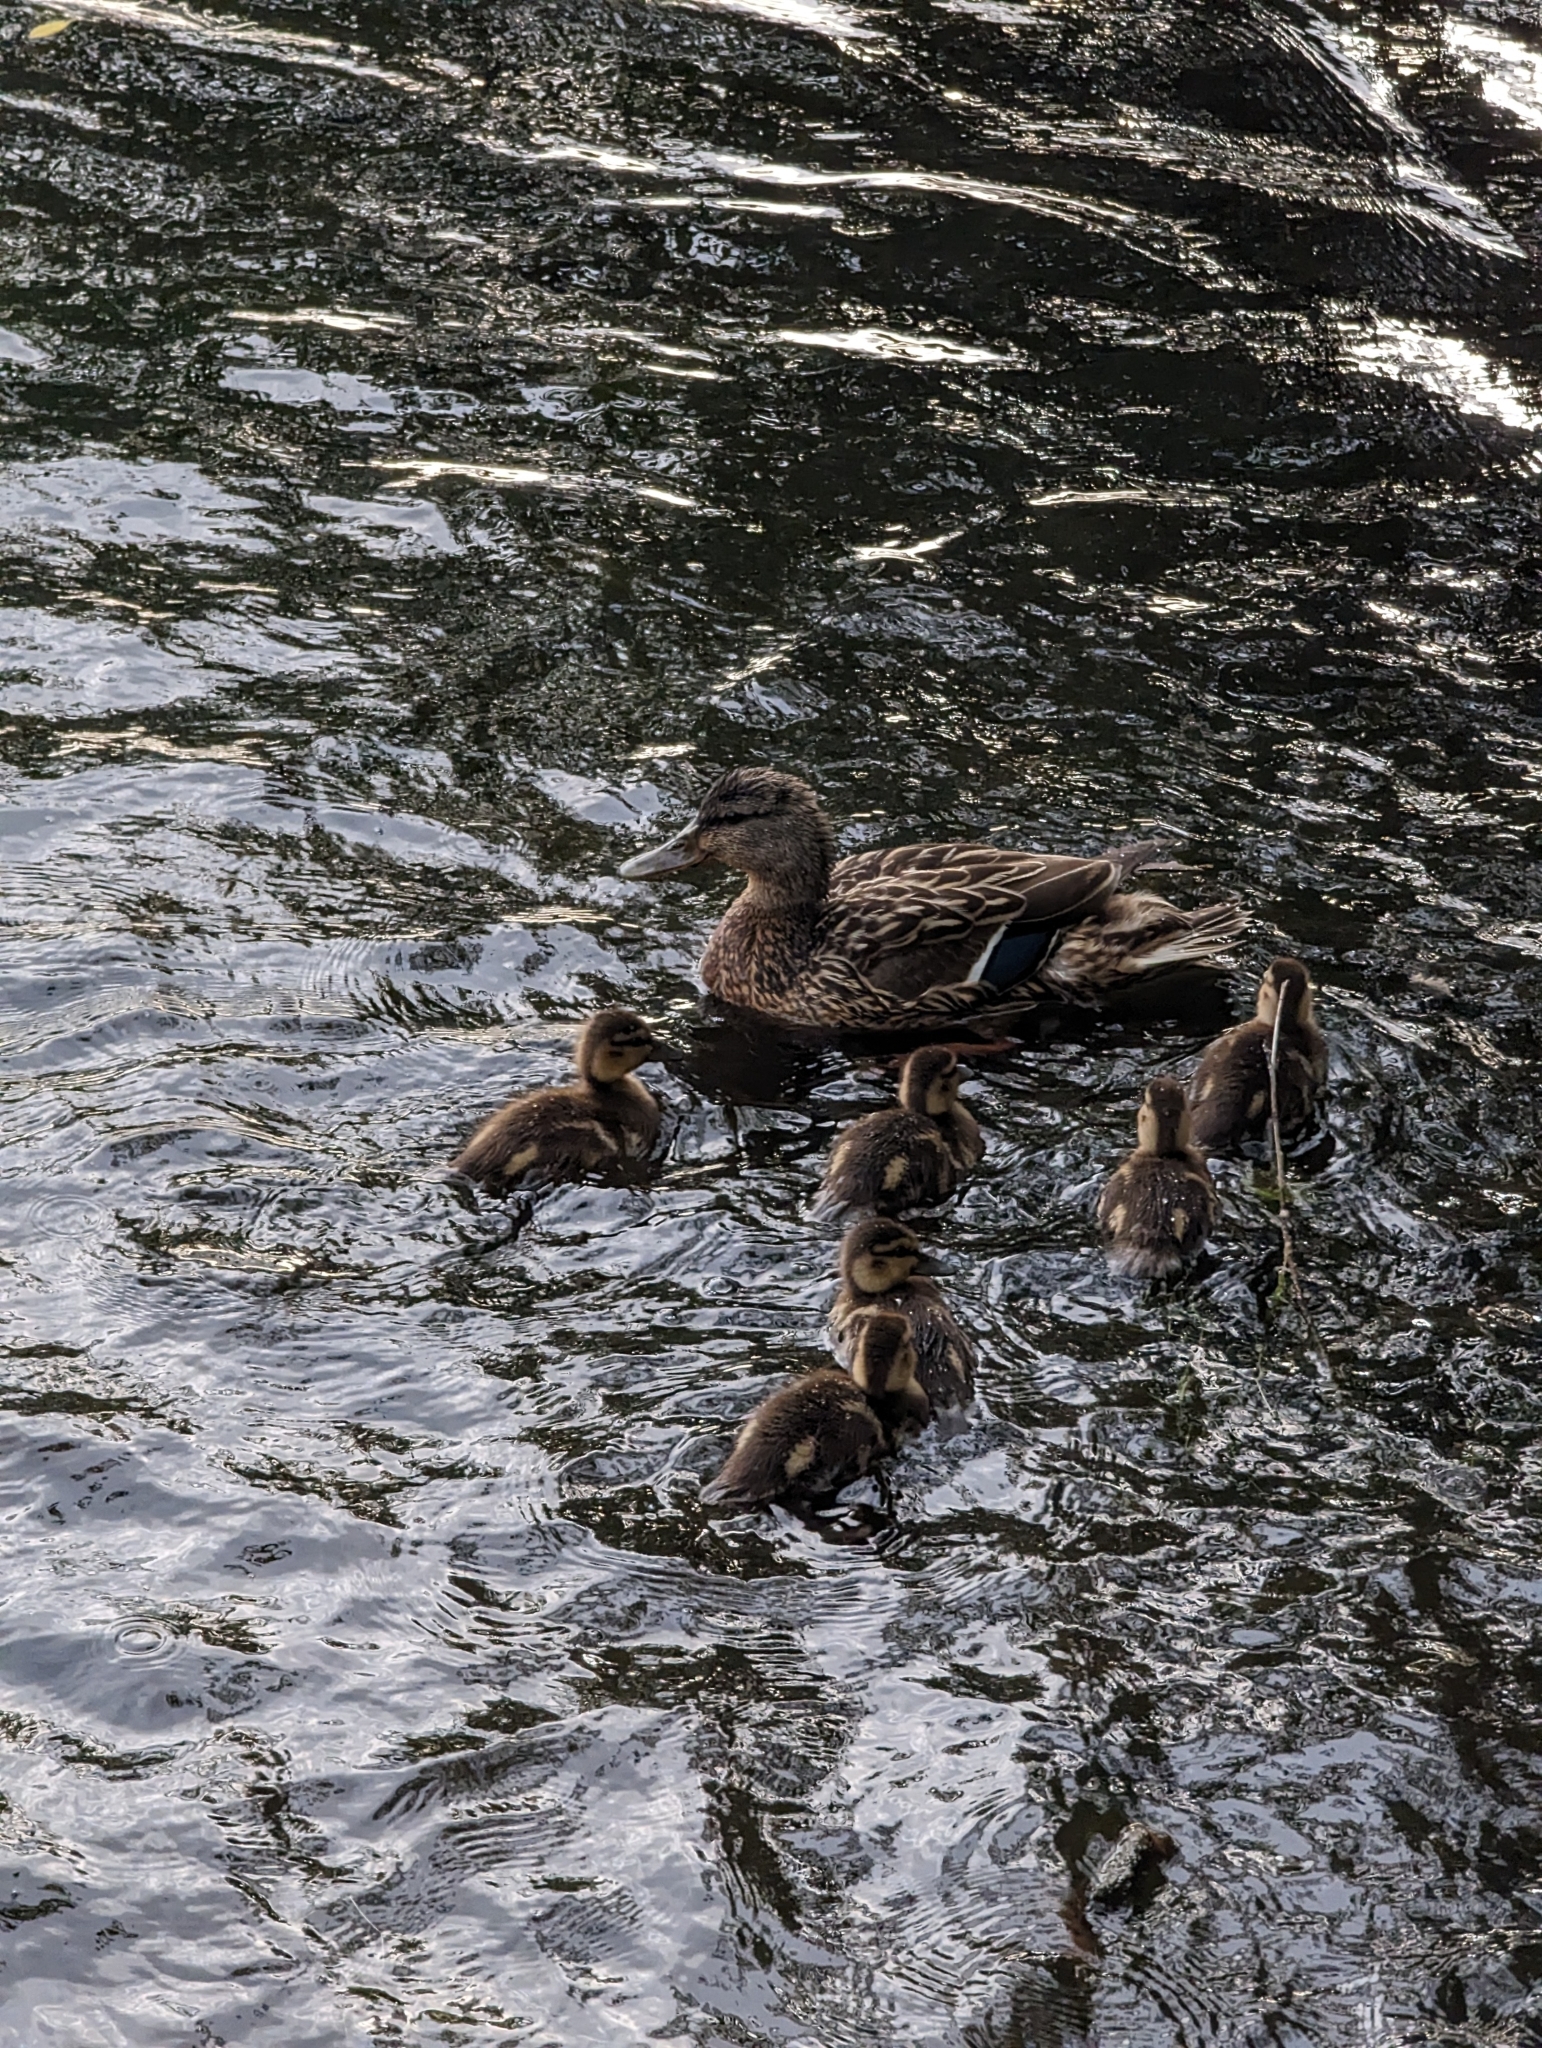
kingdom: Animalia
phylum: Chordata
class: Aves
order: Anseriformes
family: Anatidae
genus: Anas
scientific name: Anas platyrhynchos
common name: Mallard
